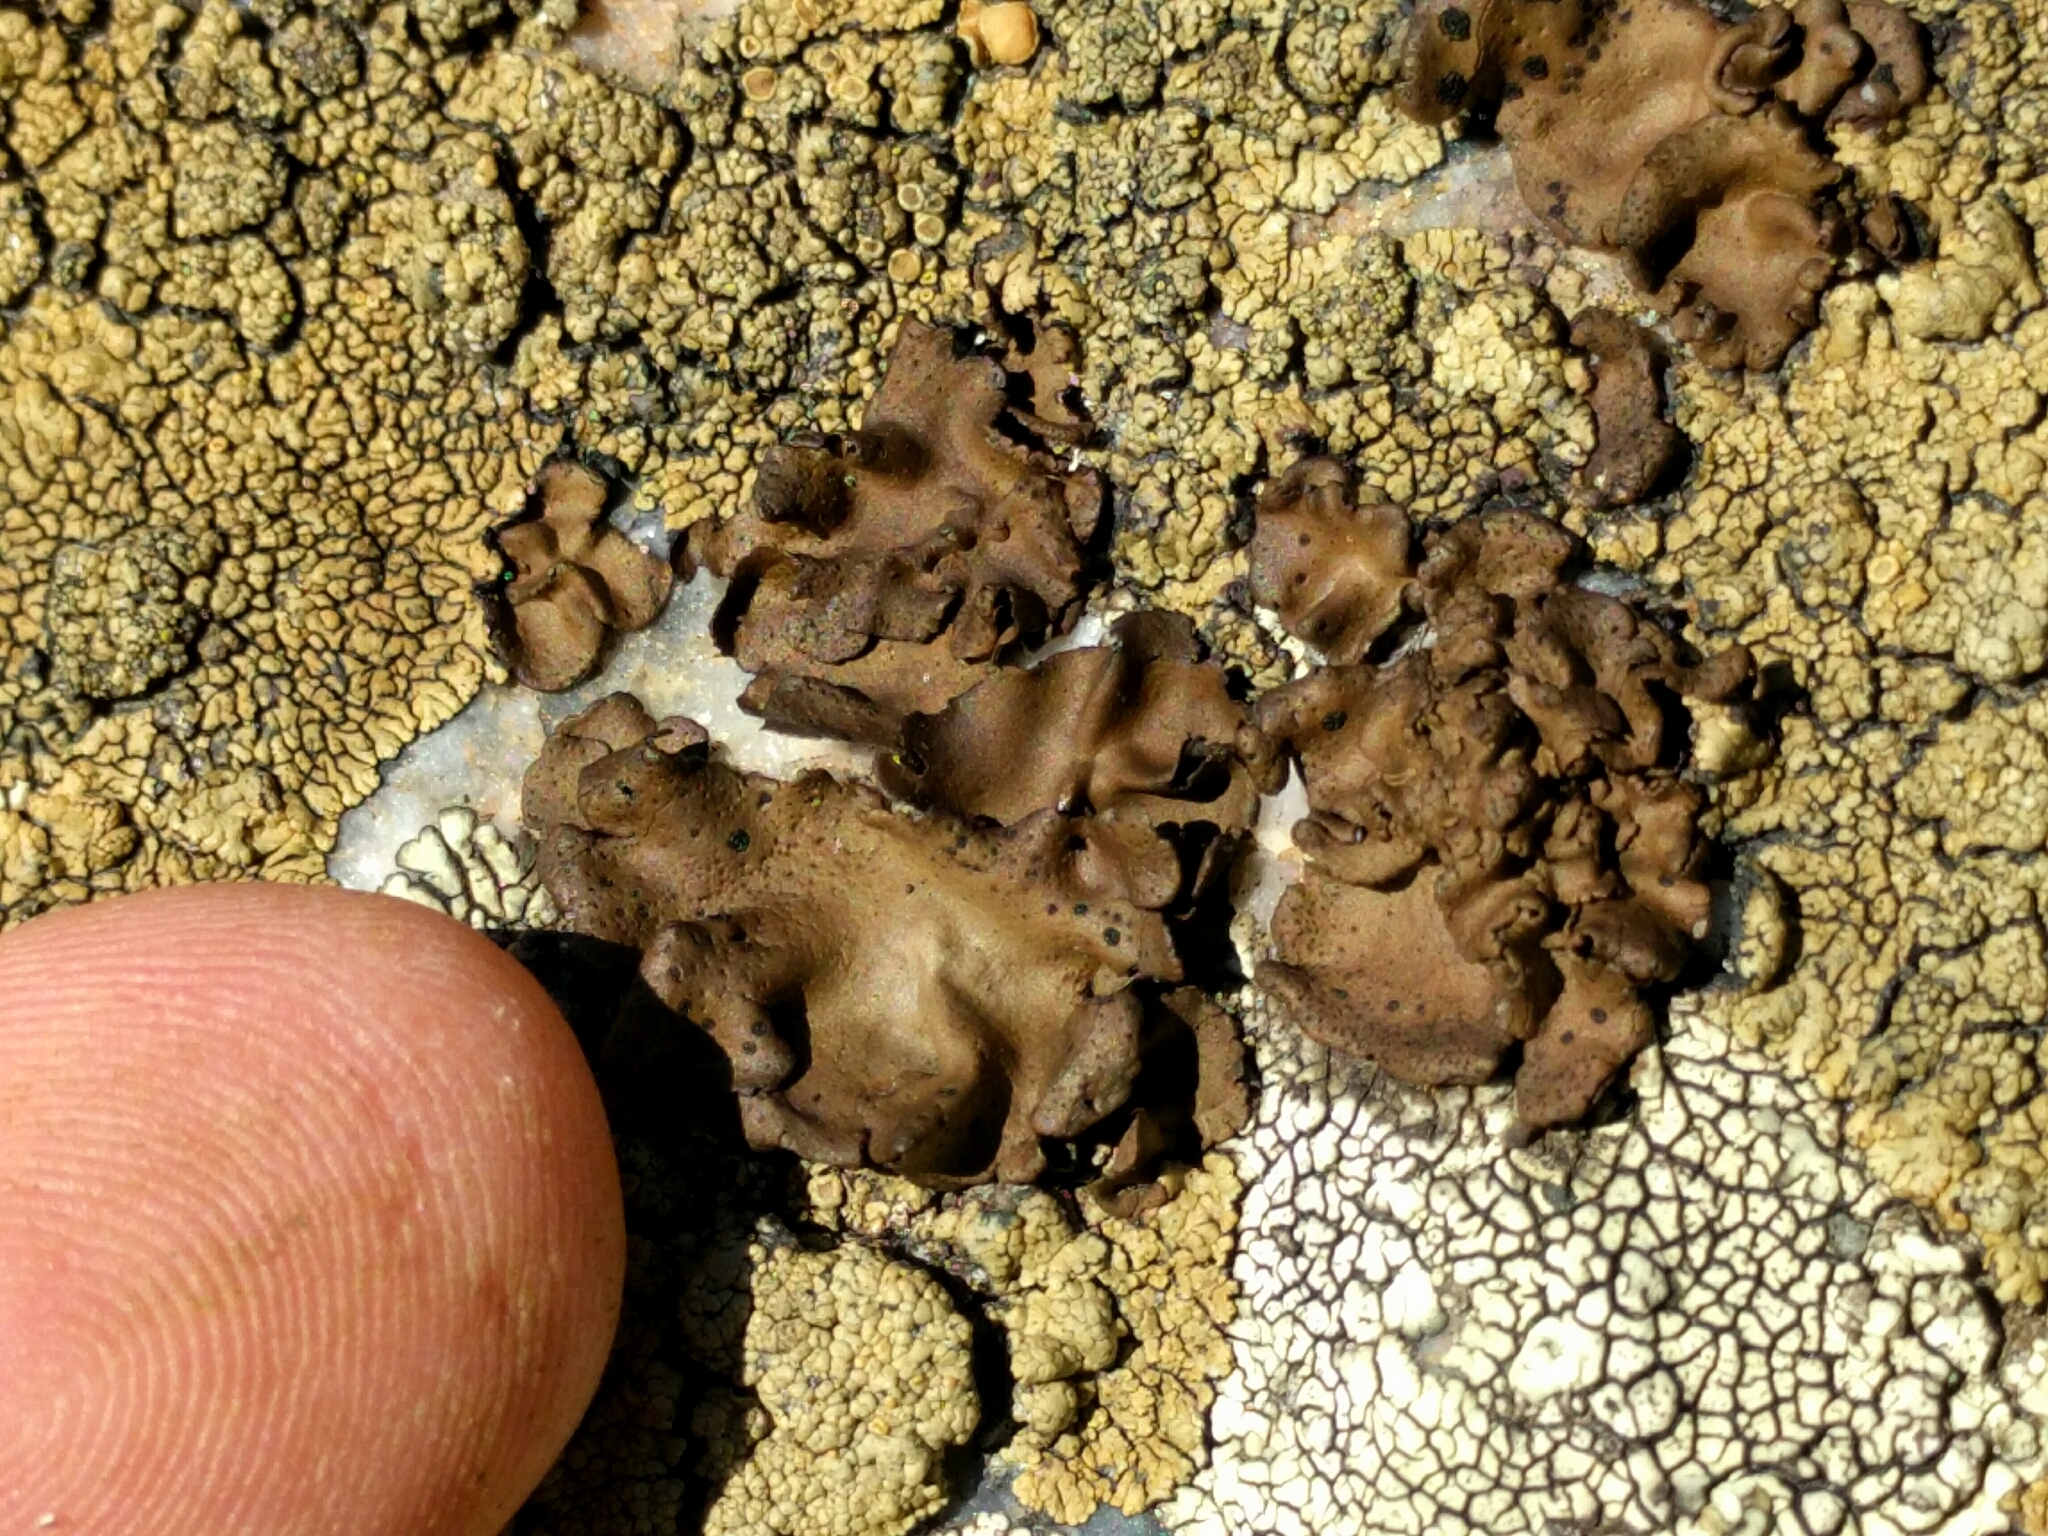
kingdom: Fungi
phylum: Ascomycota
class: Lecanoromycetes
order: Umbilicariales
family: Umbilicariaceae
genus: Umbilicaria
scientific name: Umbilicaria phaea
